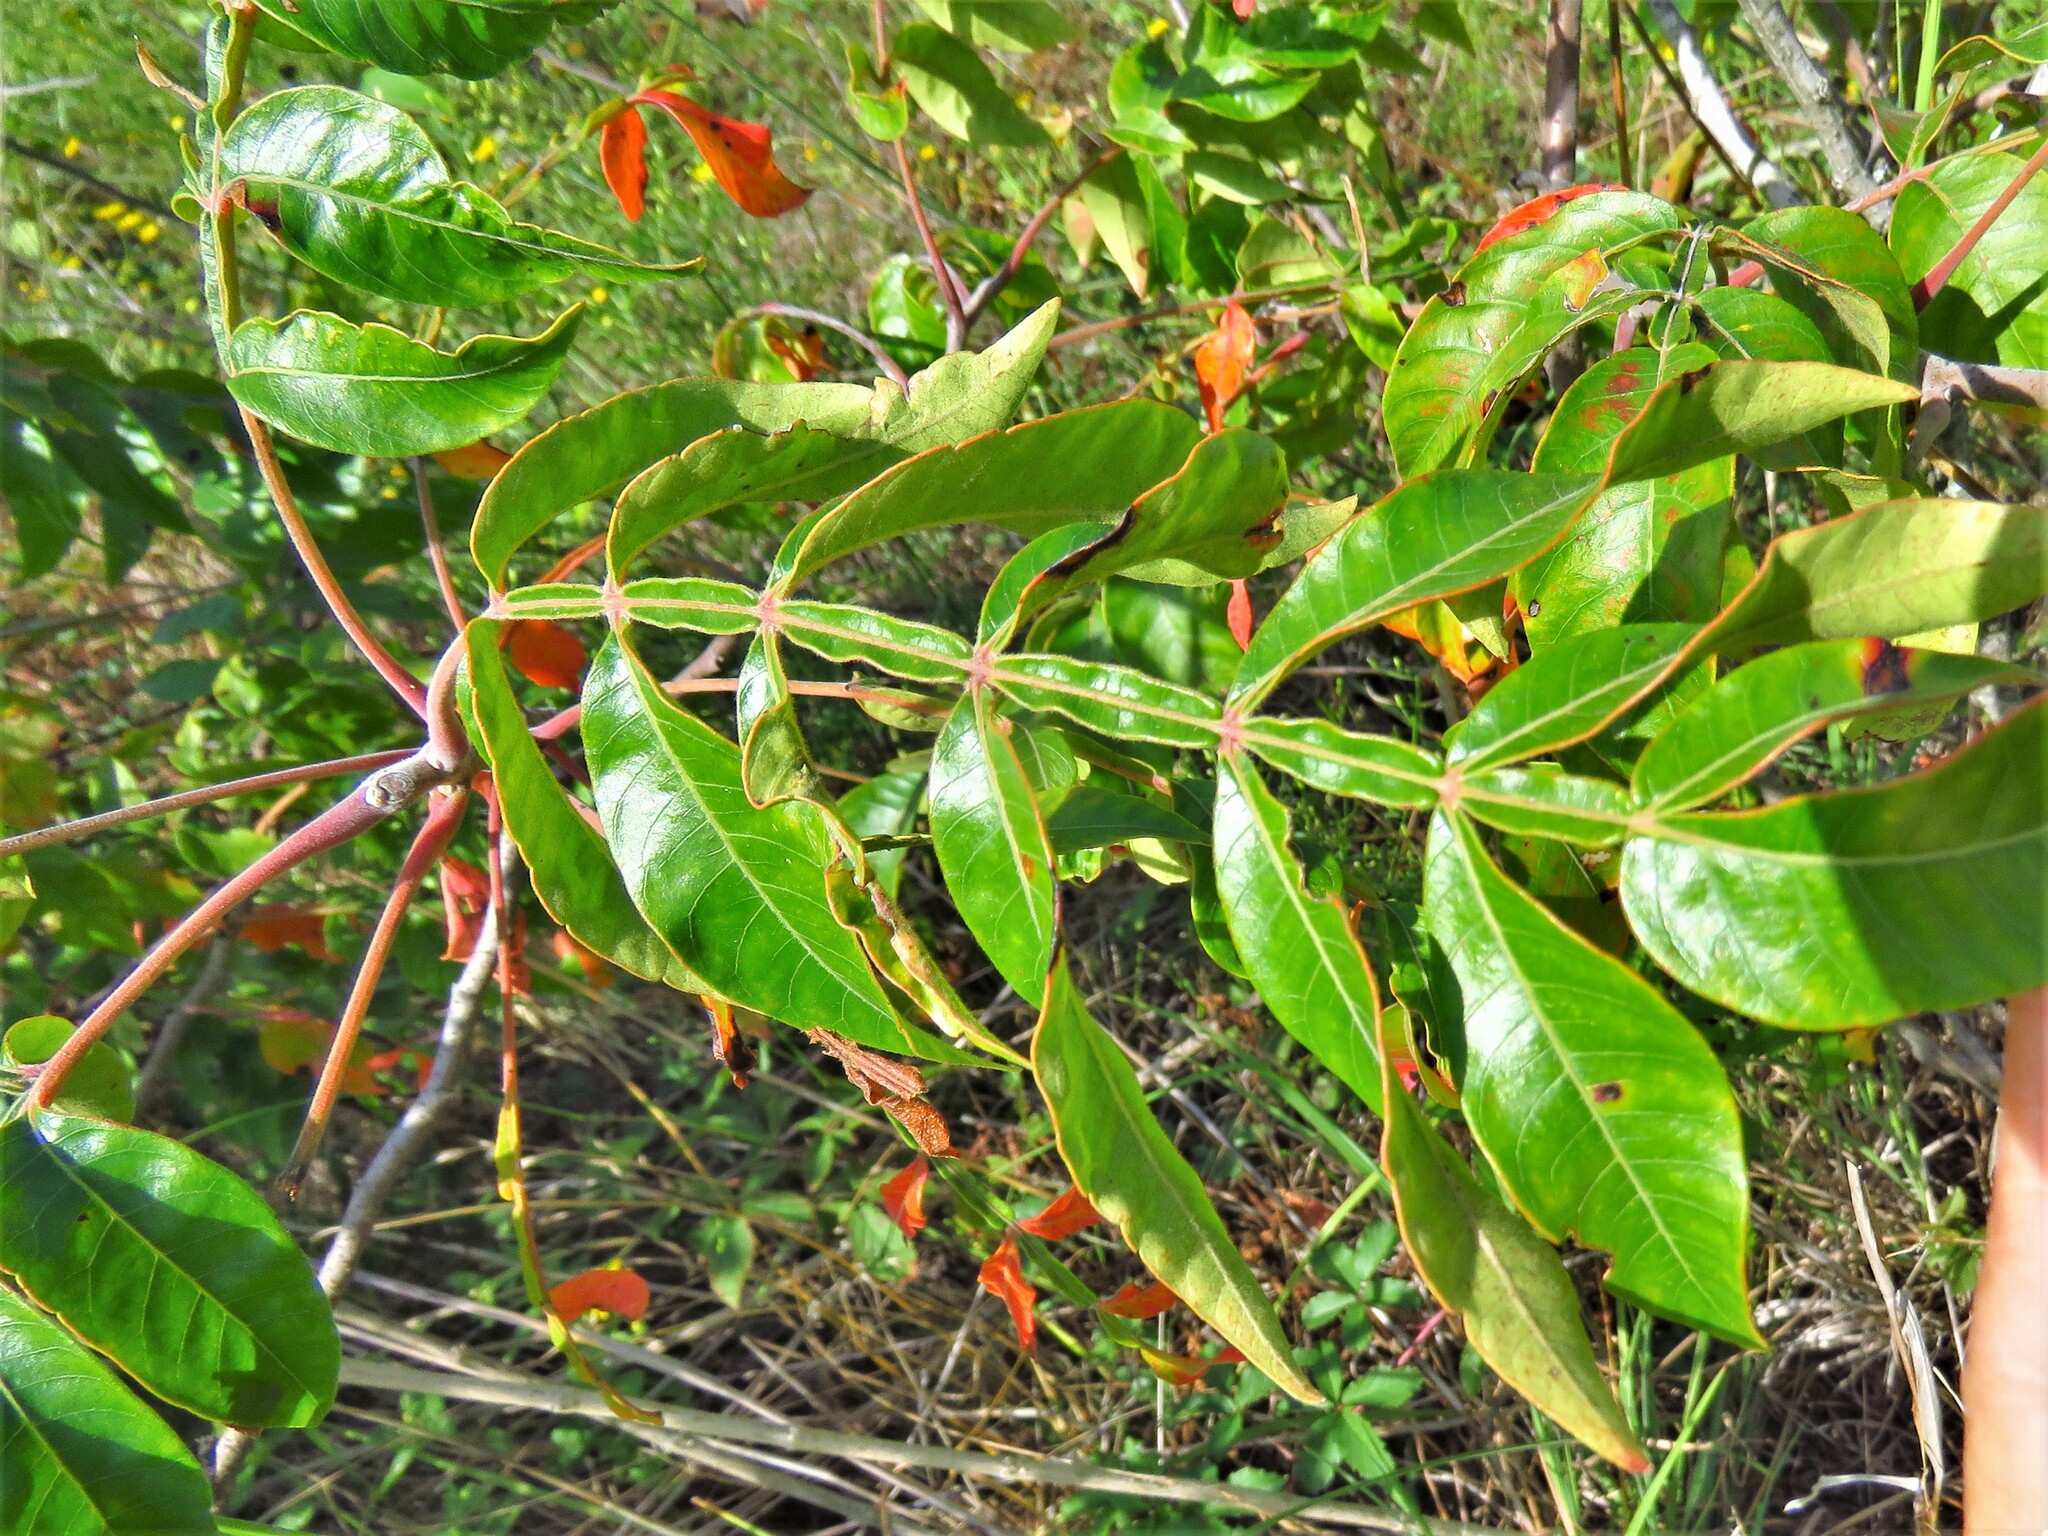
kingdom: Plantae
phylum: Tracheophyta
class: Magnoliopsida
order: Sapindales
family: Anacardiaceae
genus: Rhus
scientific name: Rhus copallina
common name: Shining sumac
